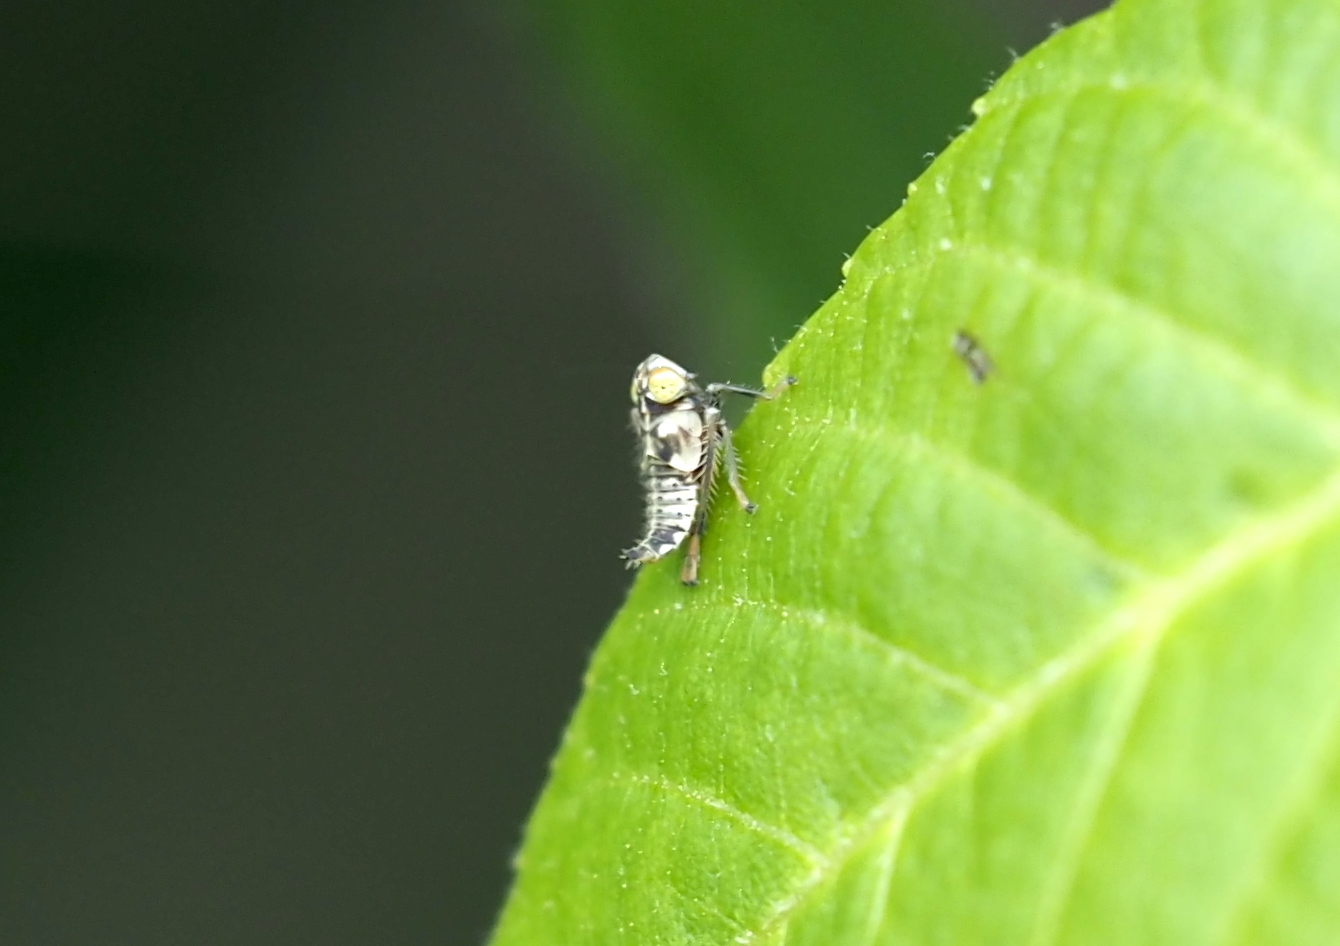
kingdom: Animalia
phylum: Arthropoda
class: Insecta
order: Hemiptera
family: Cicadellidae
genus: Jikradia
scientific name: Jikradia olitoria
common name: Coppery leafhopper
